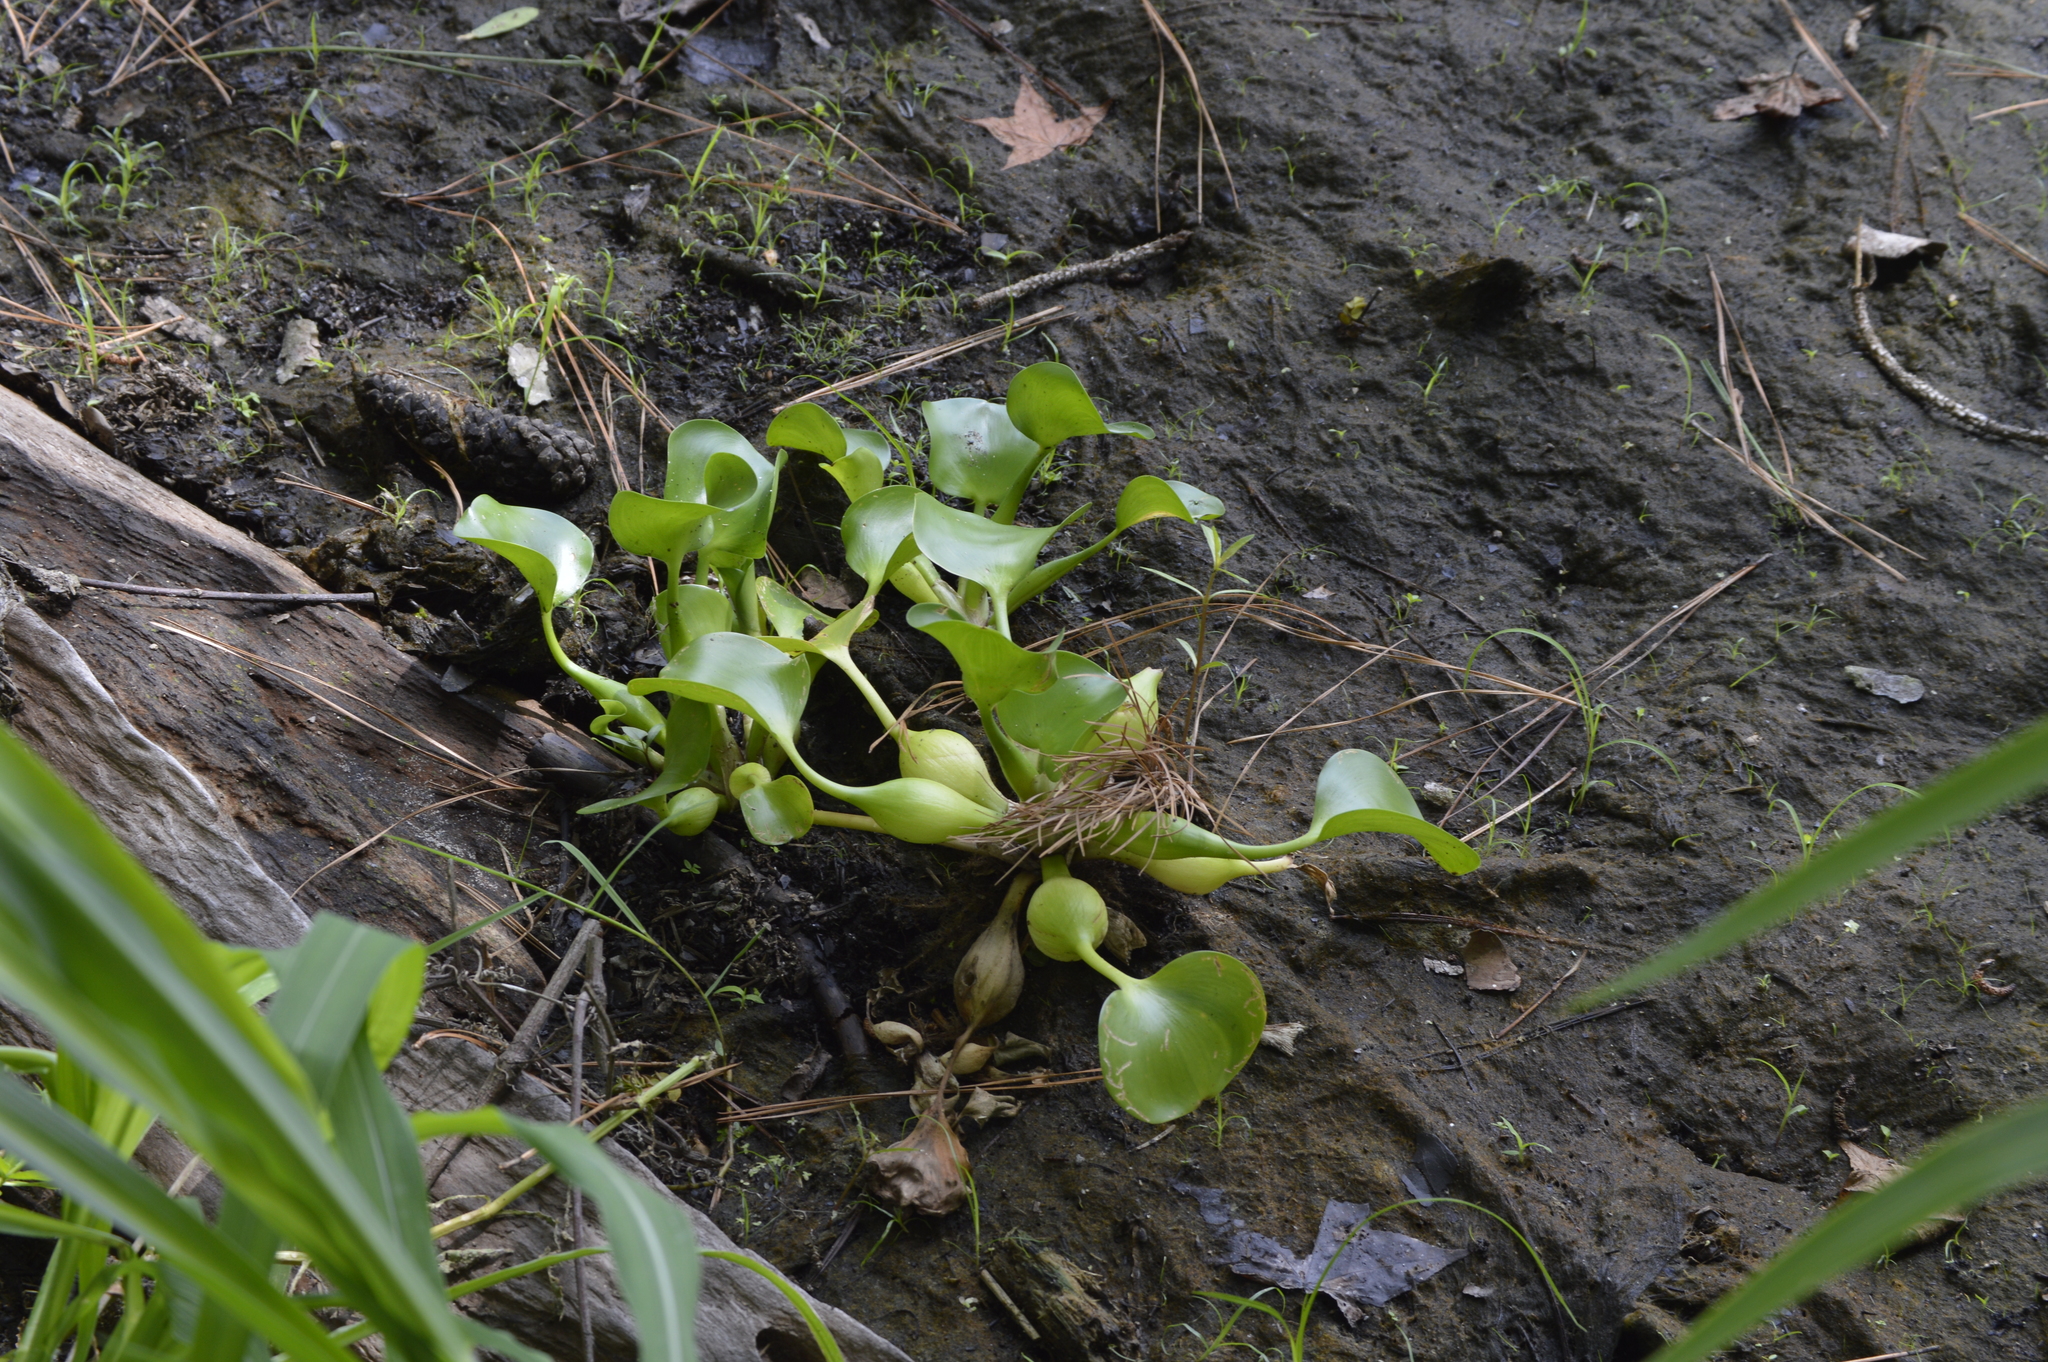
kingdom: Plantae
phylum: Tracheophyta
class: Liliopsida
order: Commelinales
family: Pontederiaceae
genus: Pontederia
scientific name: Pontederia crassipes
